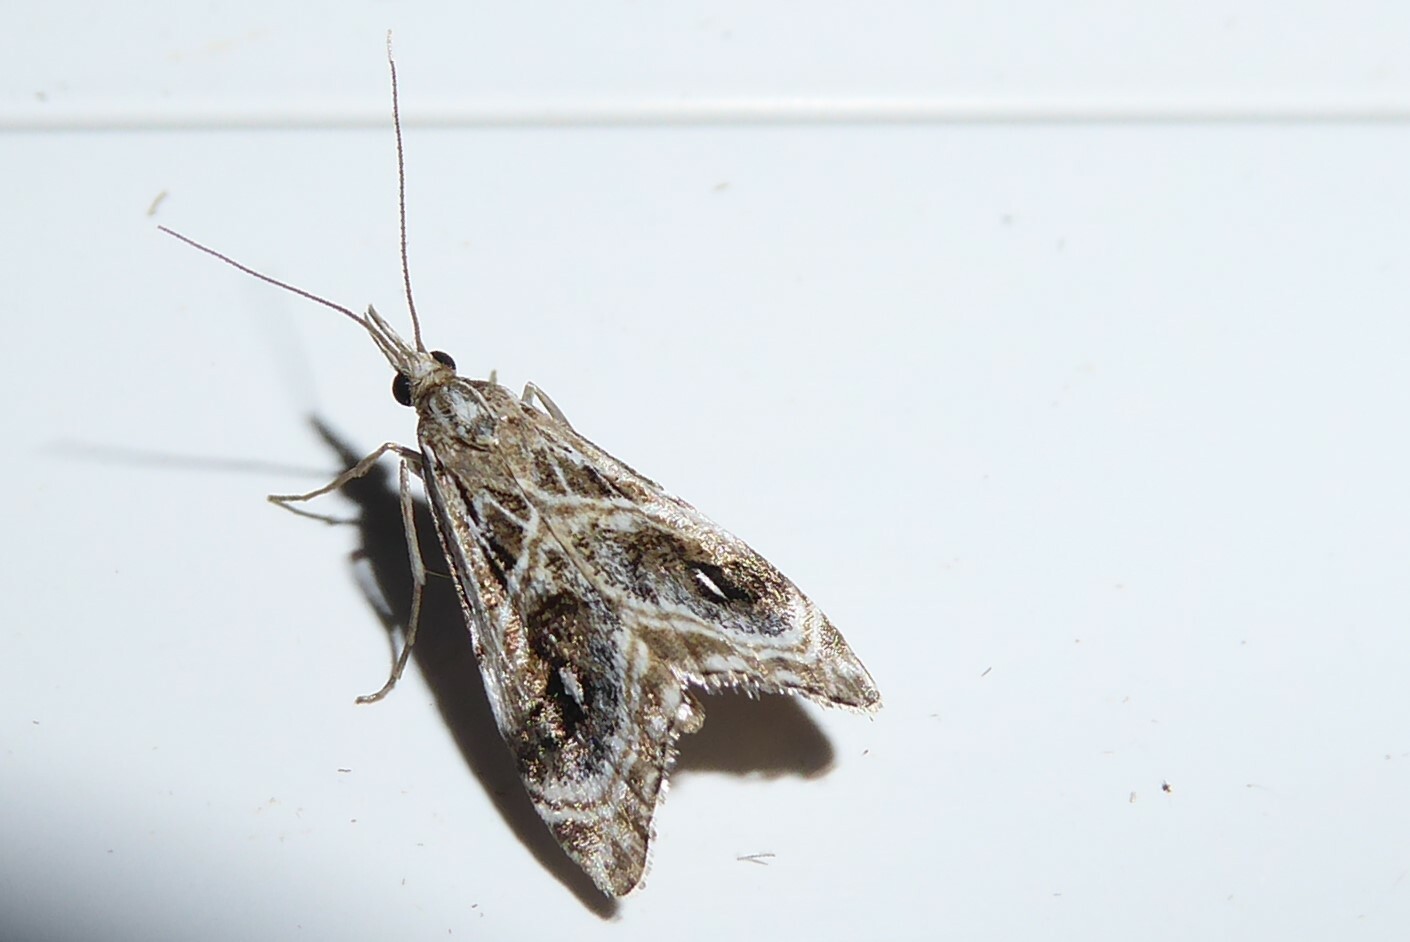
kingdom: Animalia
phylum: Arthropoda
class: Insecta
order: Lepidoptera
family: Crambidae
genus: Gadira
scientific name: Gadira acerella
